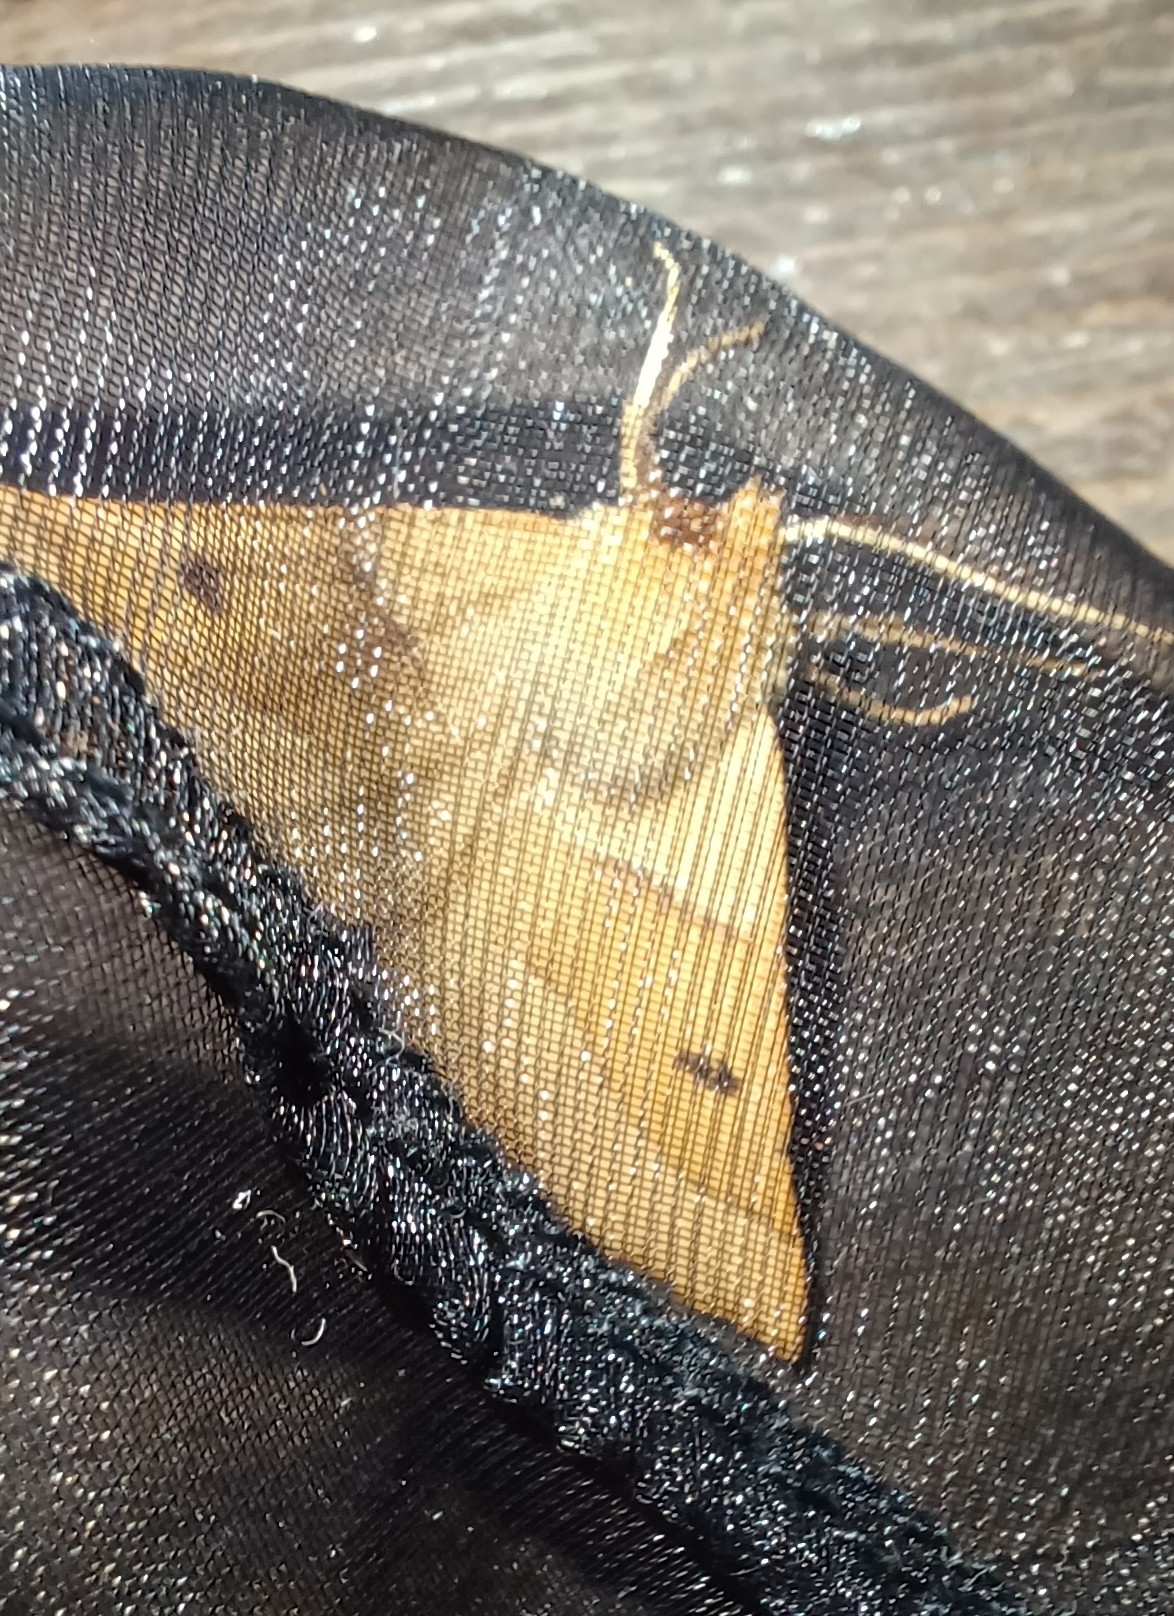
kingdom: Animalia
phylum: Arthropoda
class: Insecta
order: Lepidoptera
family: Geometridae
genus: Crocallis
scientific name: Crocallis elinguaria
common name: Scalloped oak
